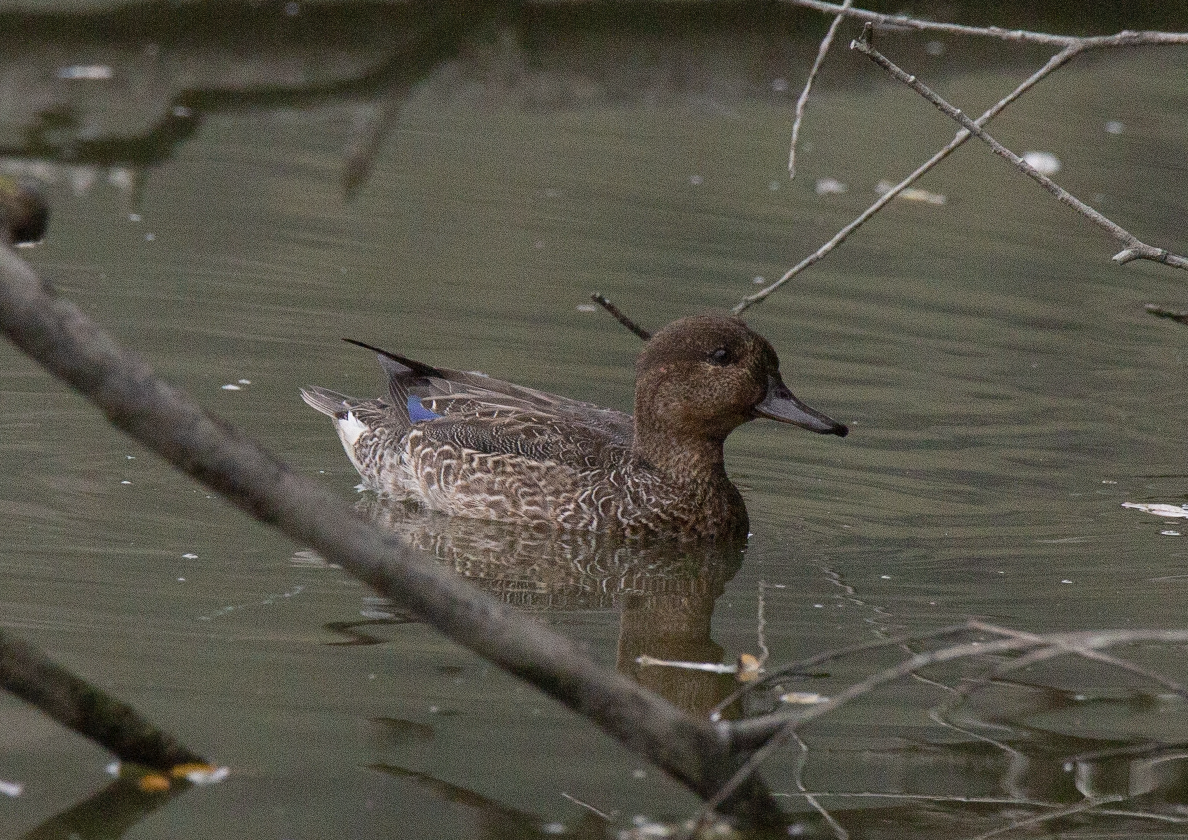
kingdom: Animalia
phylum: Chordata
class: Aves
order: Anseriformes
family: Anatidae
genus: Anas
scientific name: Anas crecca
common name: Eurasian teal
